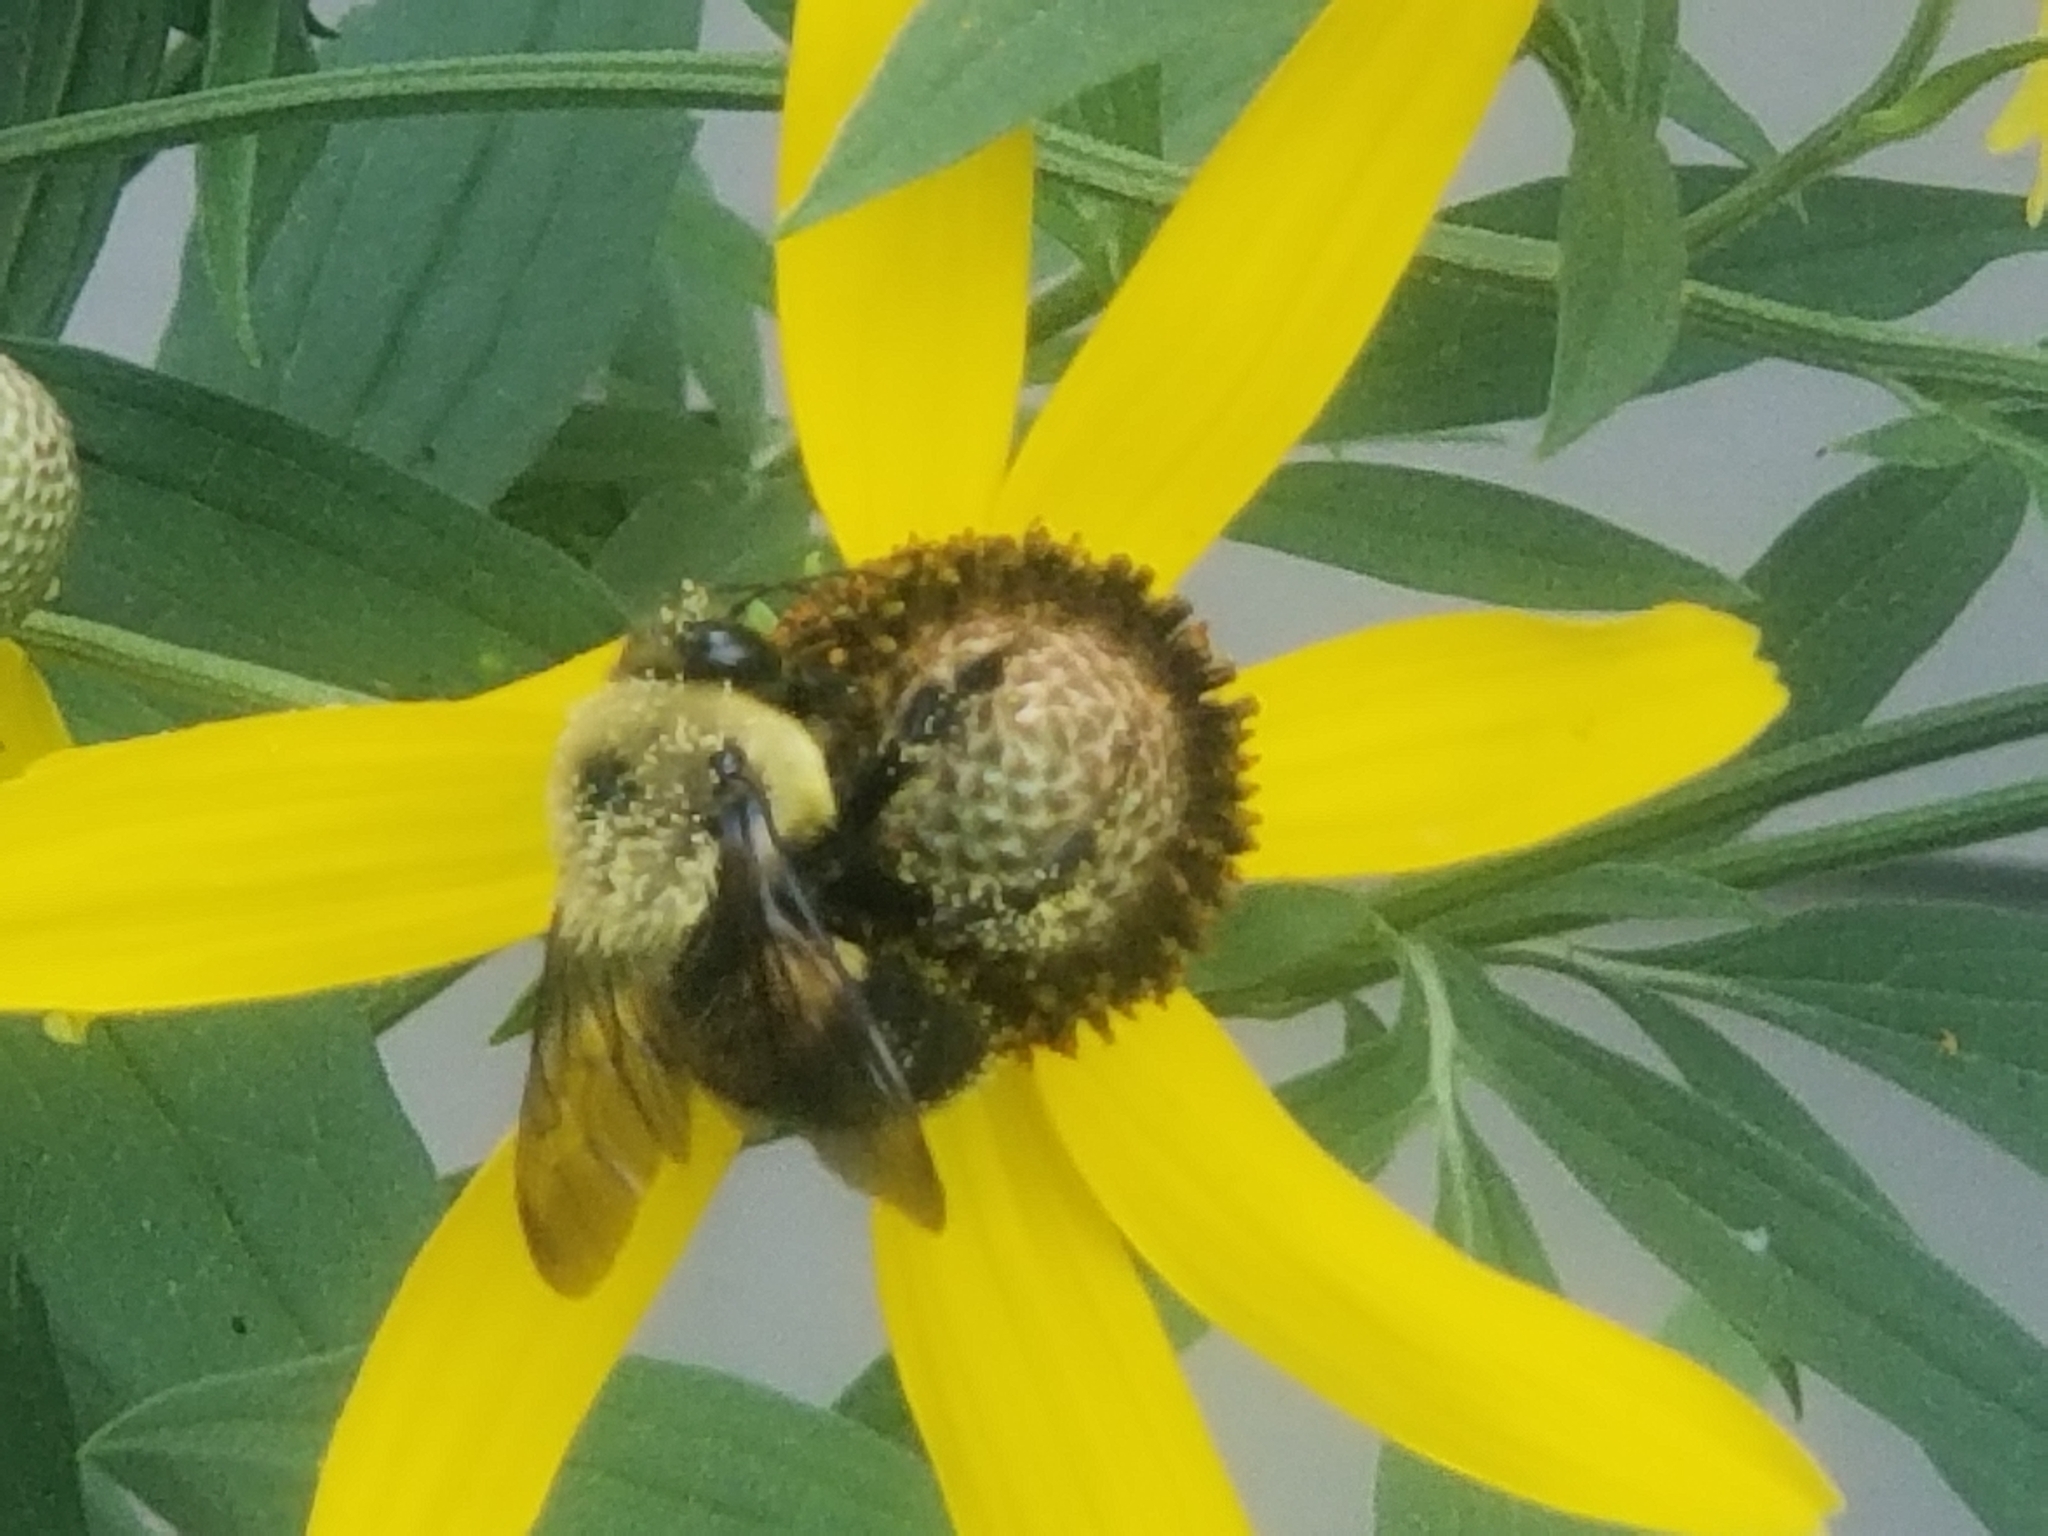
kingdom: Animalia
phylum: Arthropoda
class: Insecta
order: Hymenoptera
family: Apidae
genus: Bombus
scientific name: Bombus griseocollis
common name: Brown-belted bumble bee
